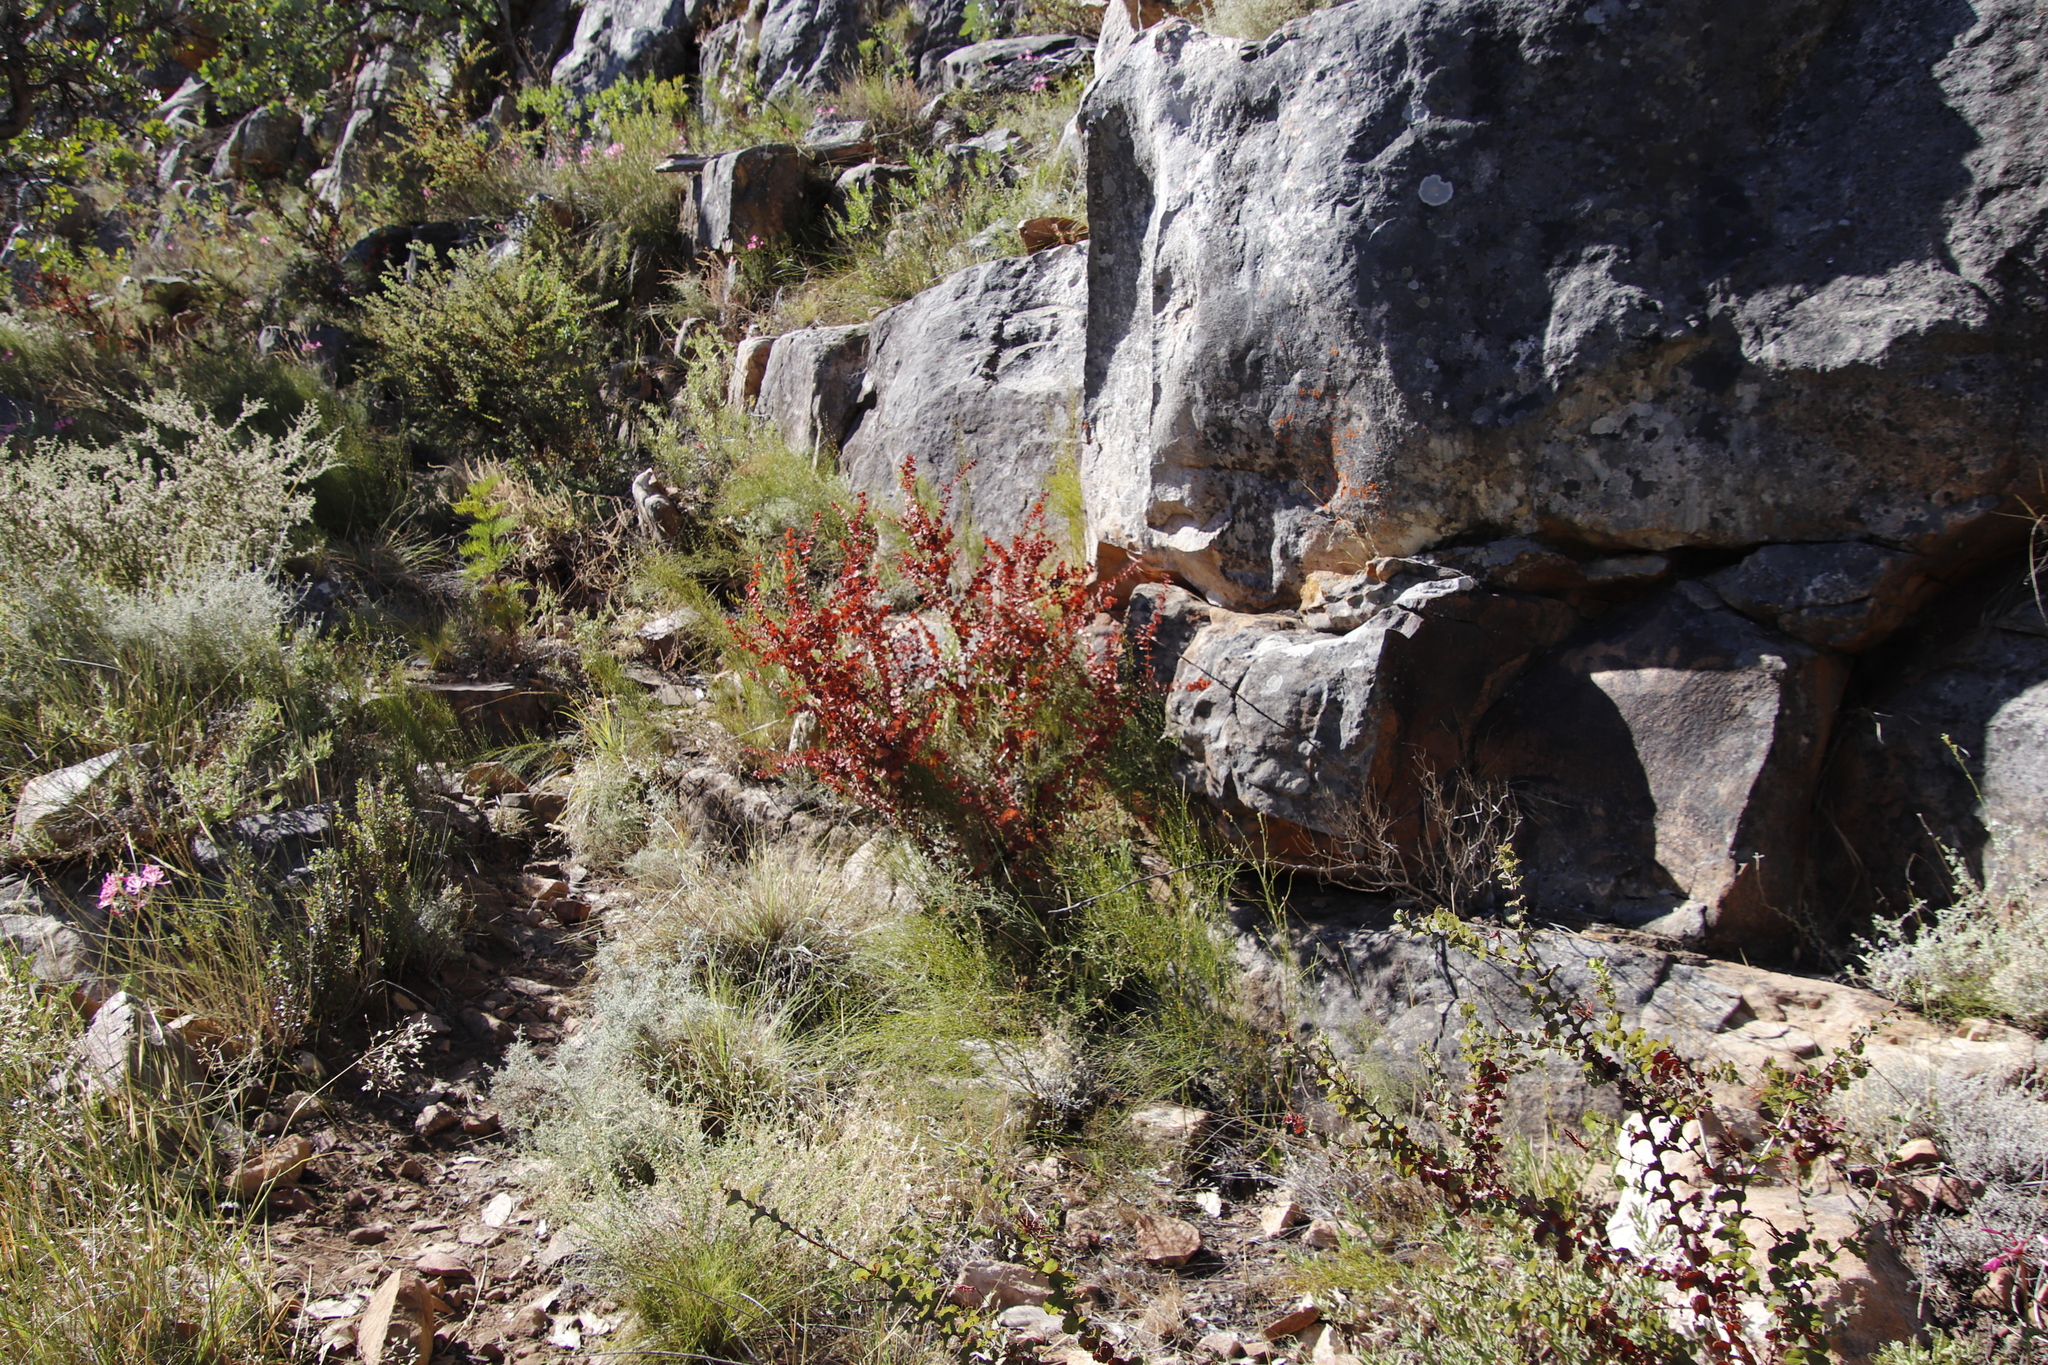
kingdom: Plantae
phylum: Tracheophyta
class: Magnoliopsida
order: Fabales
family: Fabaceae
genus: Aspalathus
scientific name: Aspalathus perfoliata
